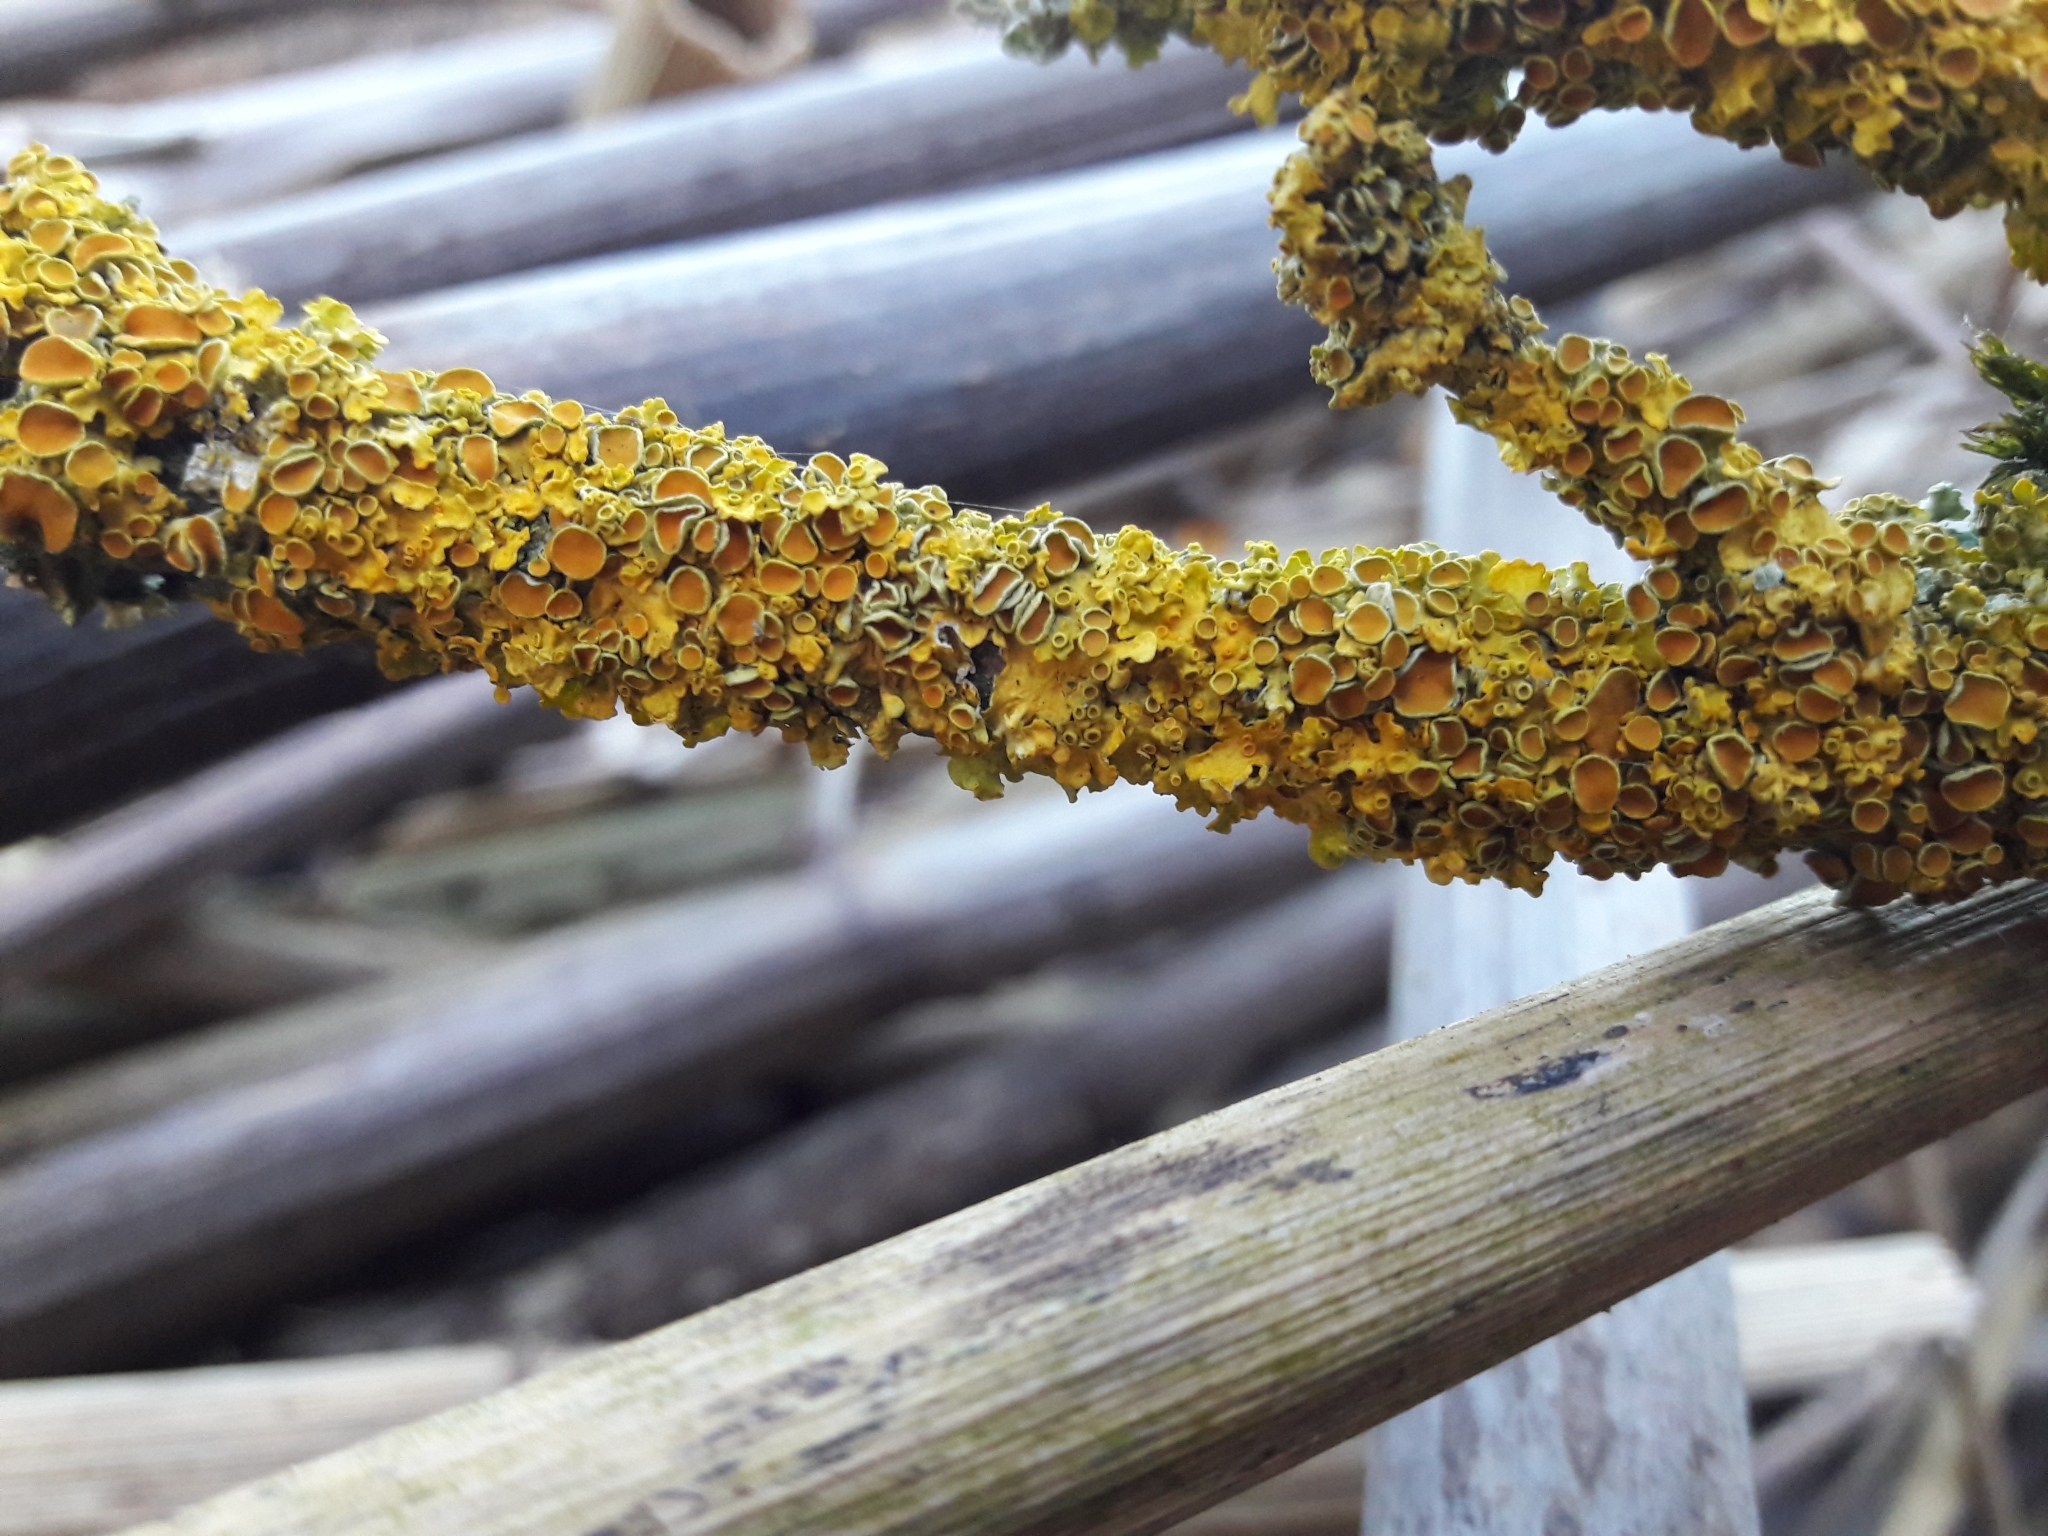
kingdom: Fungi
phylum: Ascomycota
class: Lecanoromycetes
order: Teloschistales
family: Teloschistaceae
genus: Xanthoria
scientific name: Xanthoria parietina
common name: Common orange lichen
